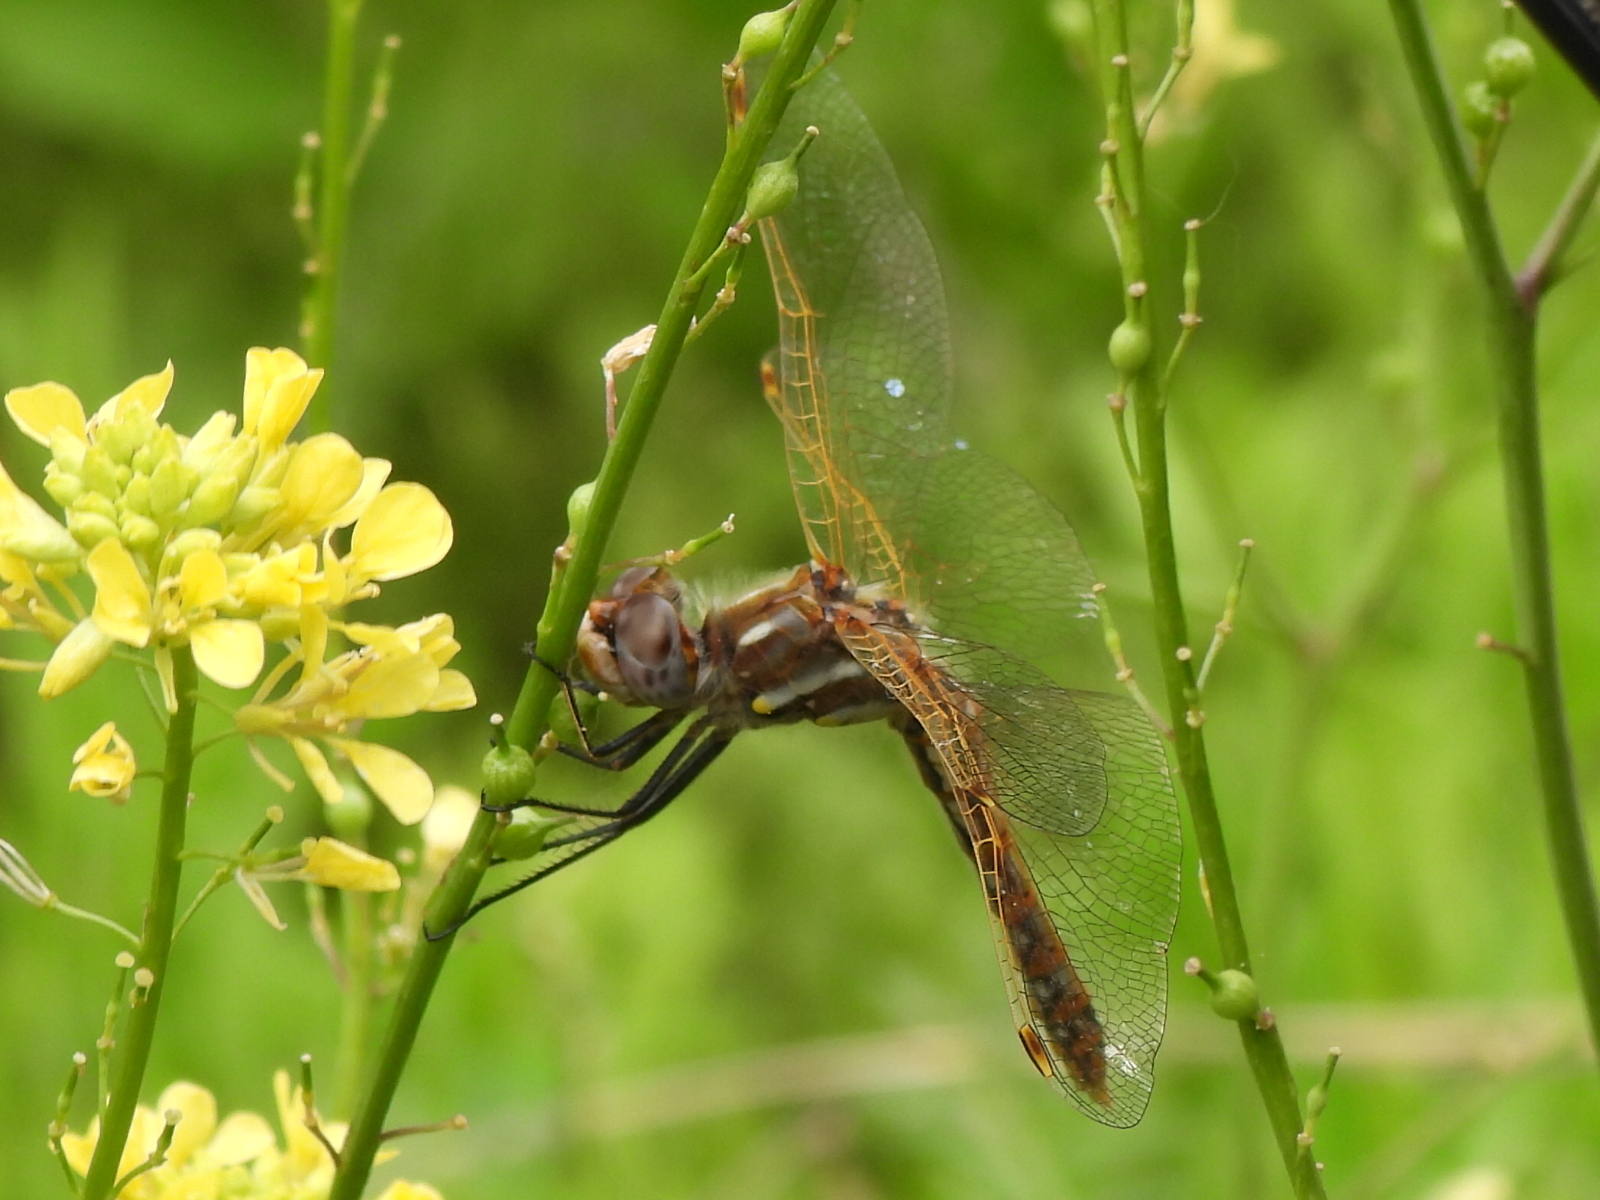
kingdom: Animalia
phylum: Arthropoda
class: Insecta
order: Odonata
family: Libellulidae
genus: Sympetrum
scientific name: Sympetrum corruptum
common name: Variegated meadowhawk
